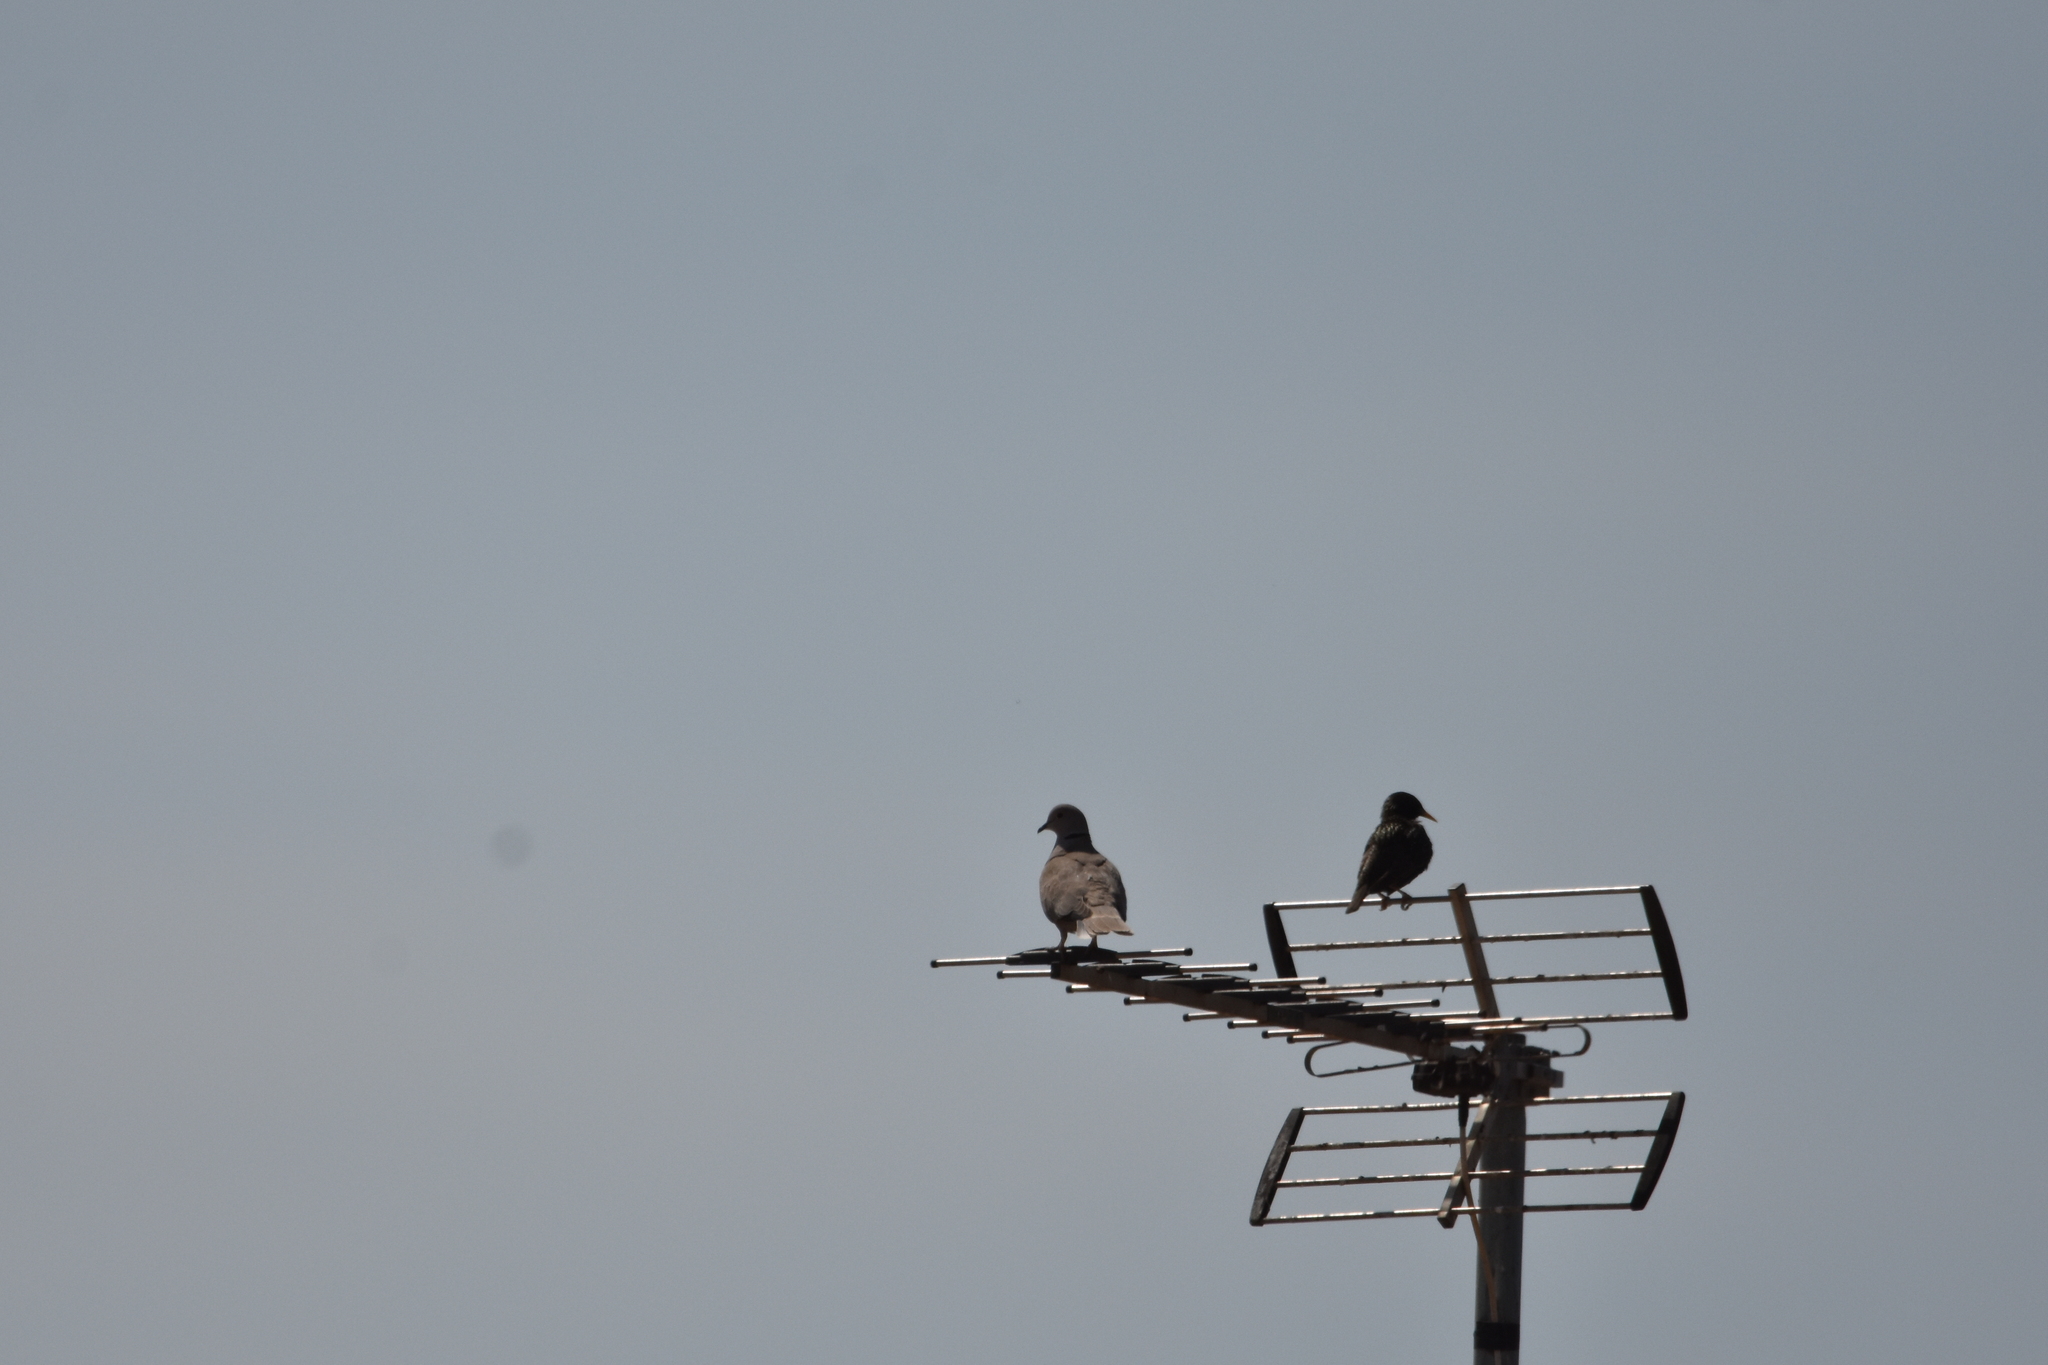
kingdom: Animalia
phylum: Chordata
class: Aves
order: Columbiformes
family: Columbidae
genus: Streptopelia
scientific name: Streptopelia decaocto
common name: Eurasian collared dove
